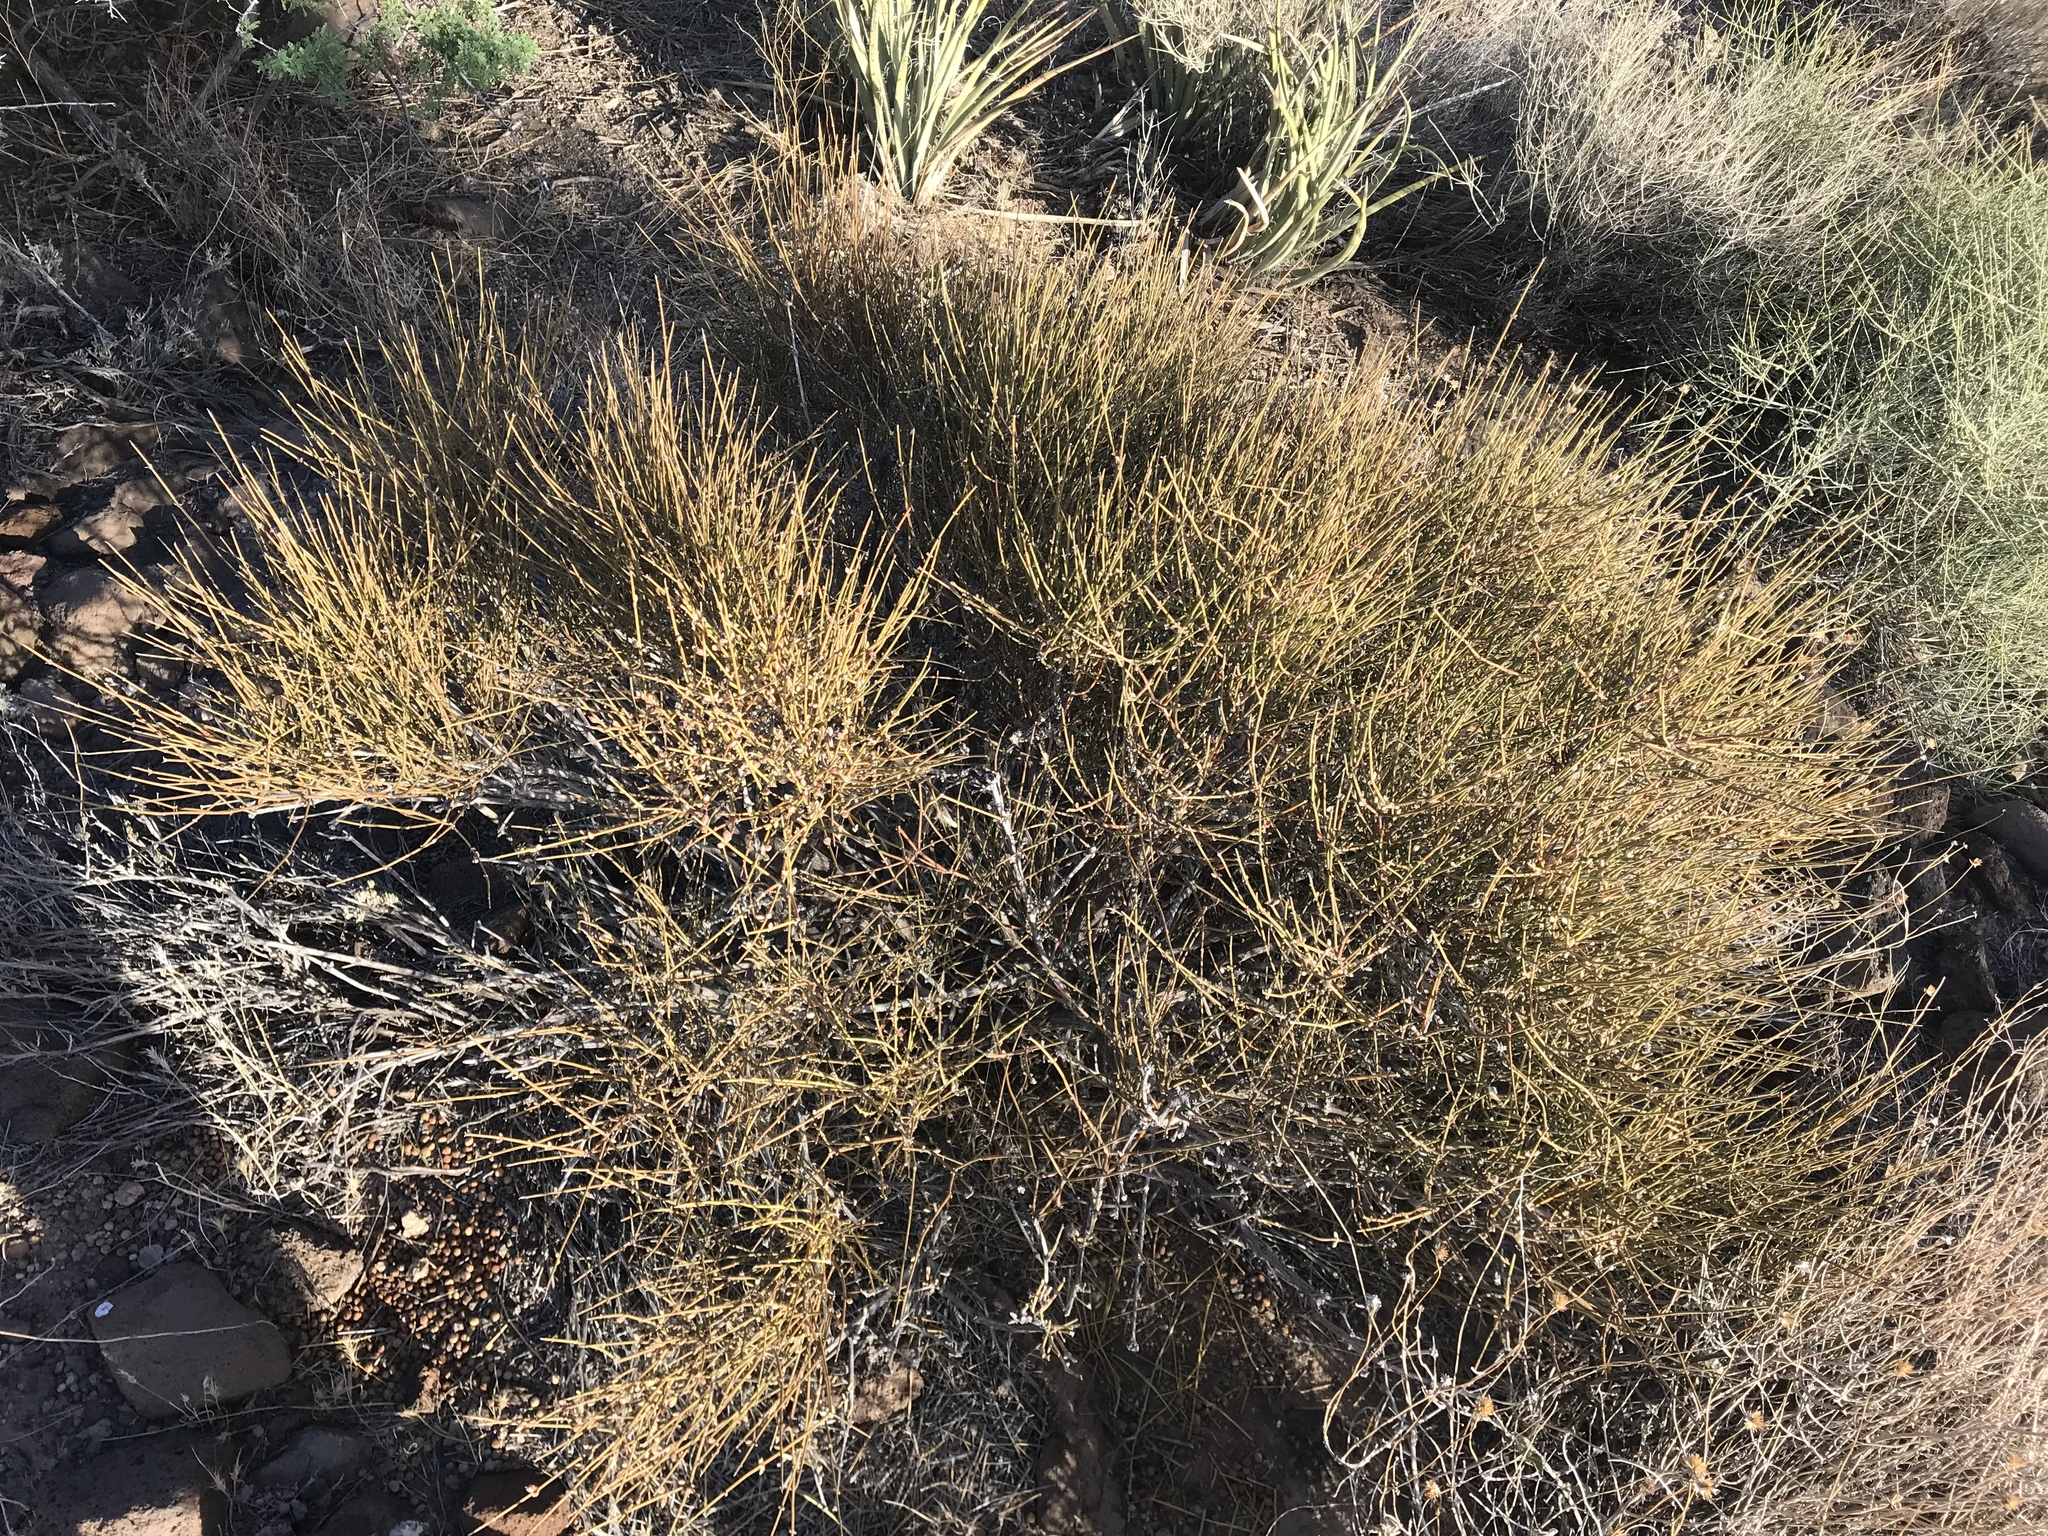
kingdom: Plantae
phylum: Tracheophyta
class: Gnetopsida
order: Ephedrales
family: Ephedraceae
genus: Ephedra
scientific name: Ephedra viridis
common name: Green ephedra
